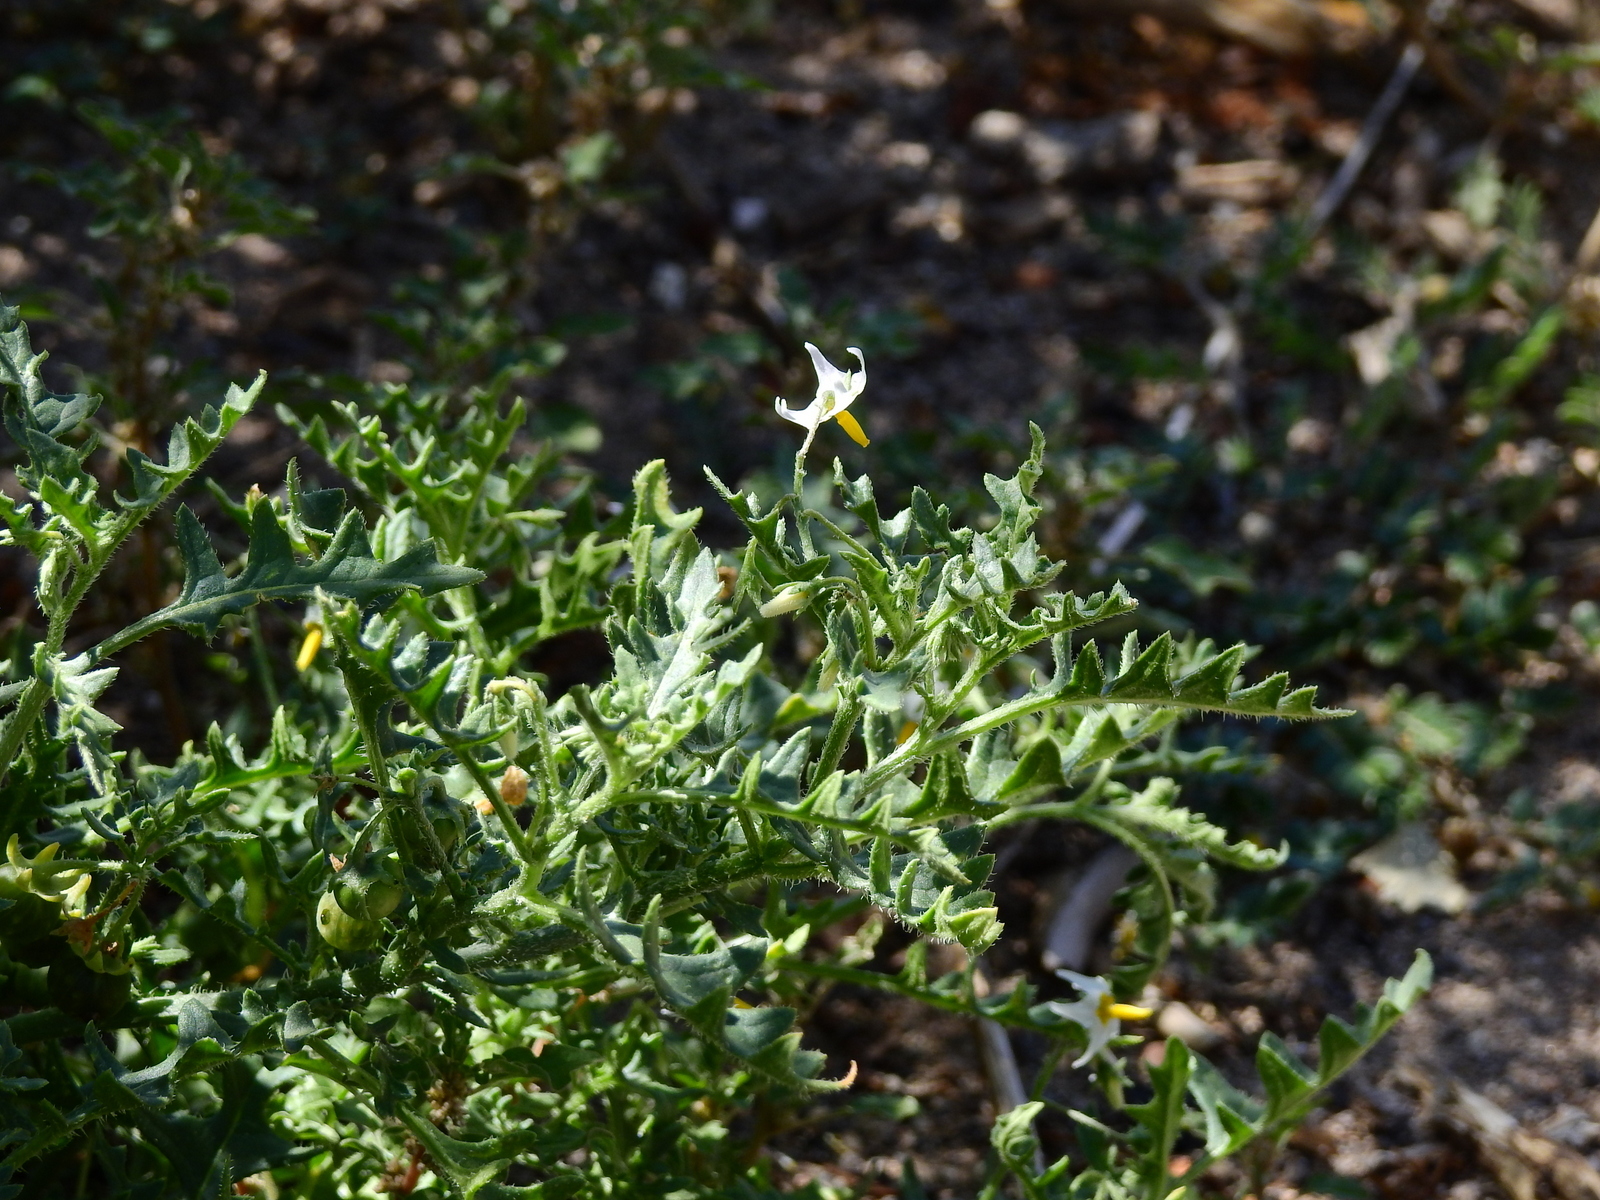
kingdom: Plantae
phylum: Tracheophyta
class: Magnoliopsida
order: Solanales
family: Solanaceae
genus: Solanum
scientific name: Solanum triflorum
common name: Small nightshade
